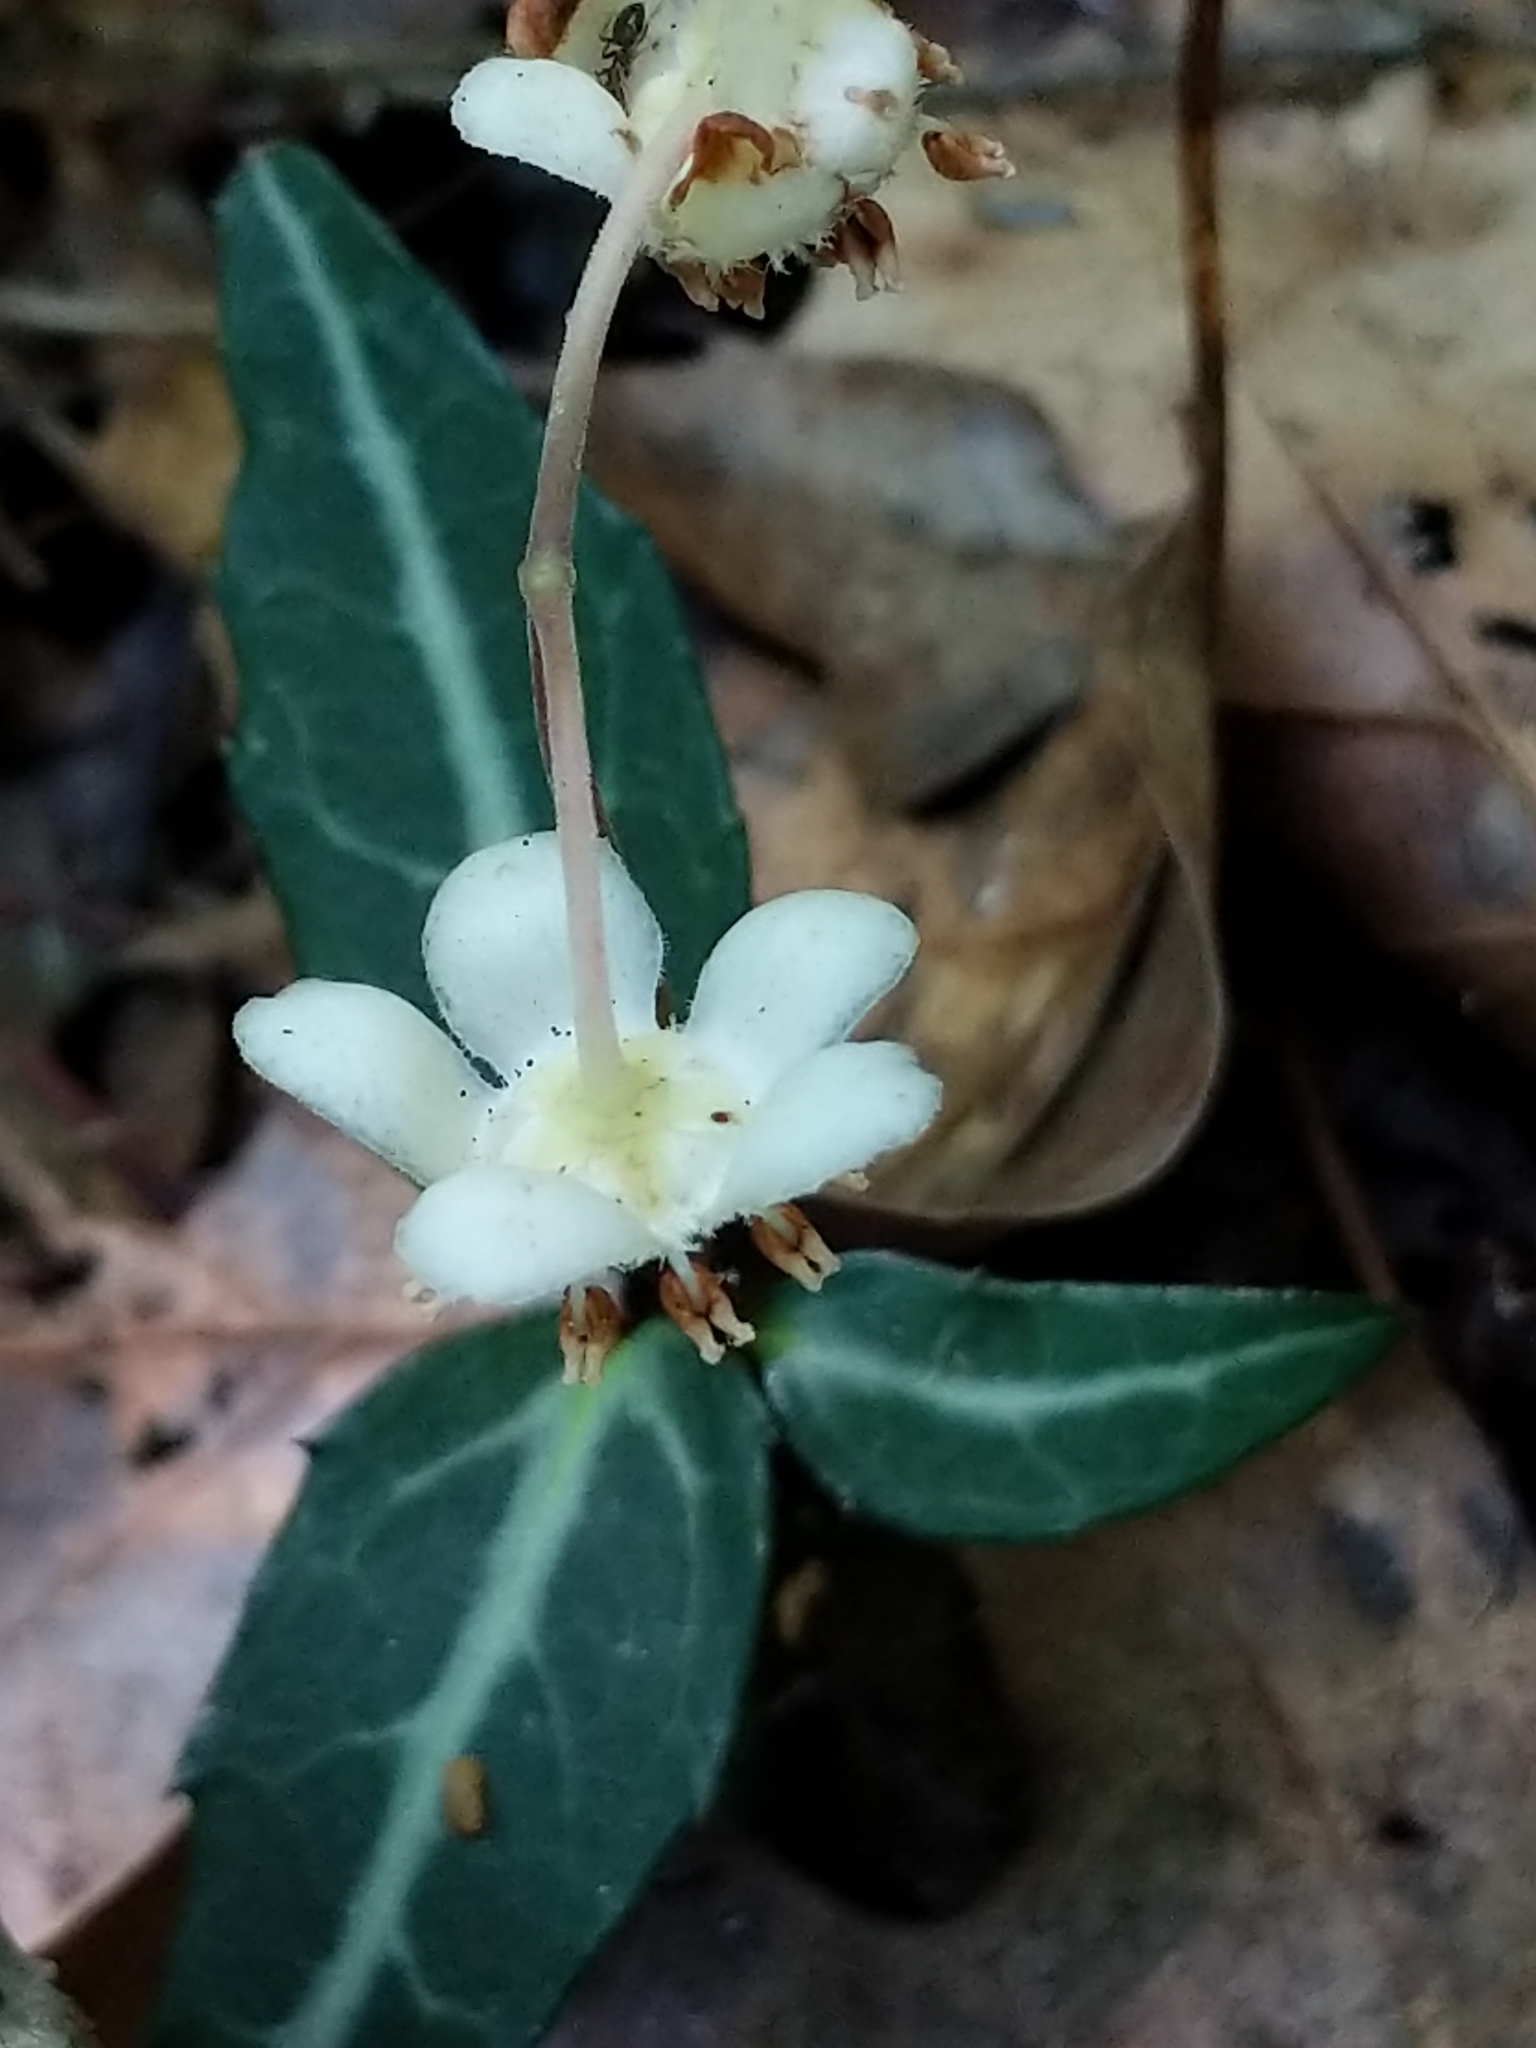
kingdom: Plantae
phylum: Tracheophyta
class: Magnoliopsida
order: Ericales
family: Ericaceae
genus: Chimaphila
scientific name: Chimaphila maculata
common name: Spotted pipsissewa
